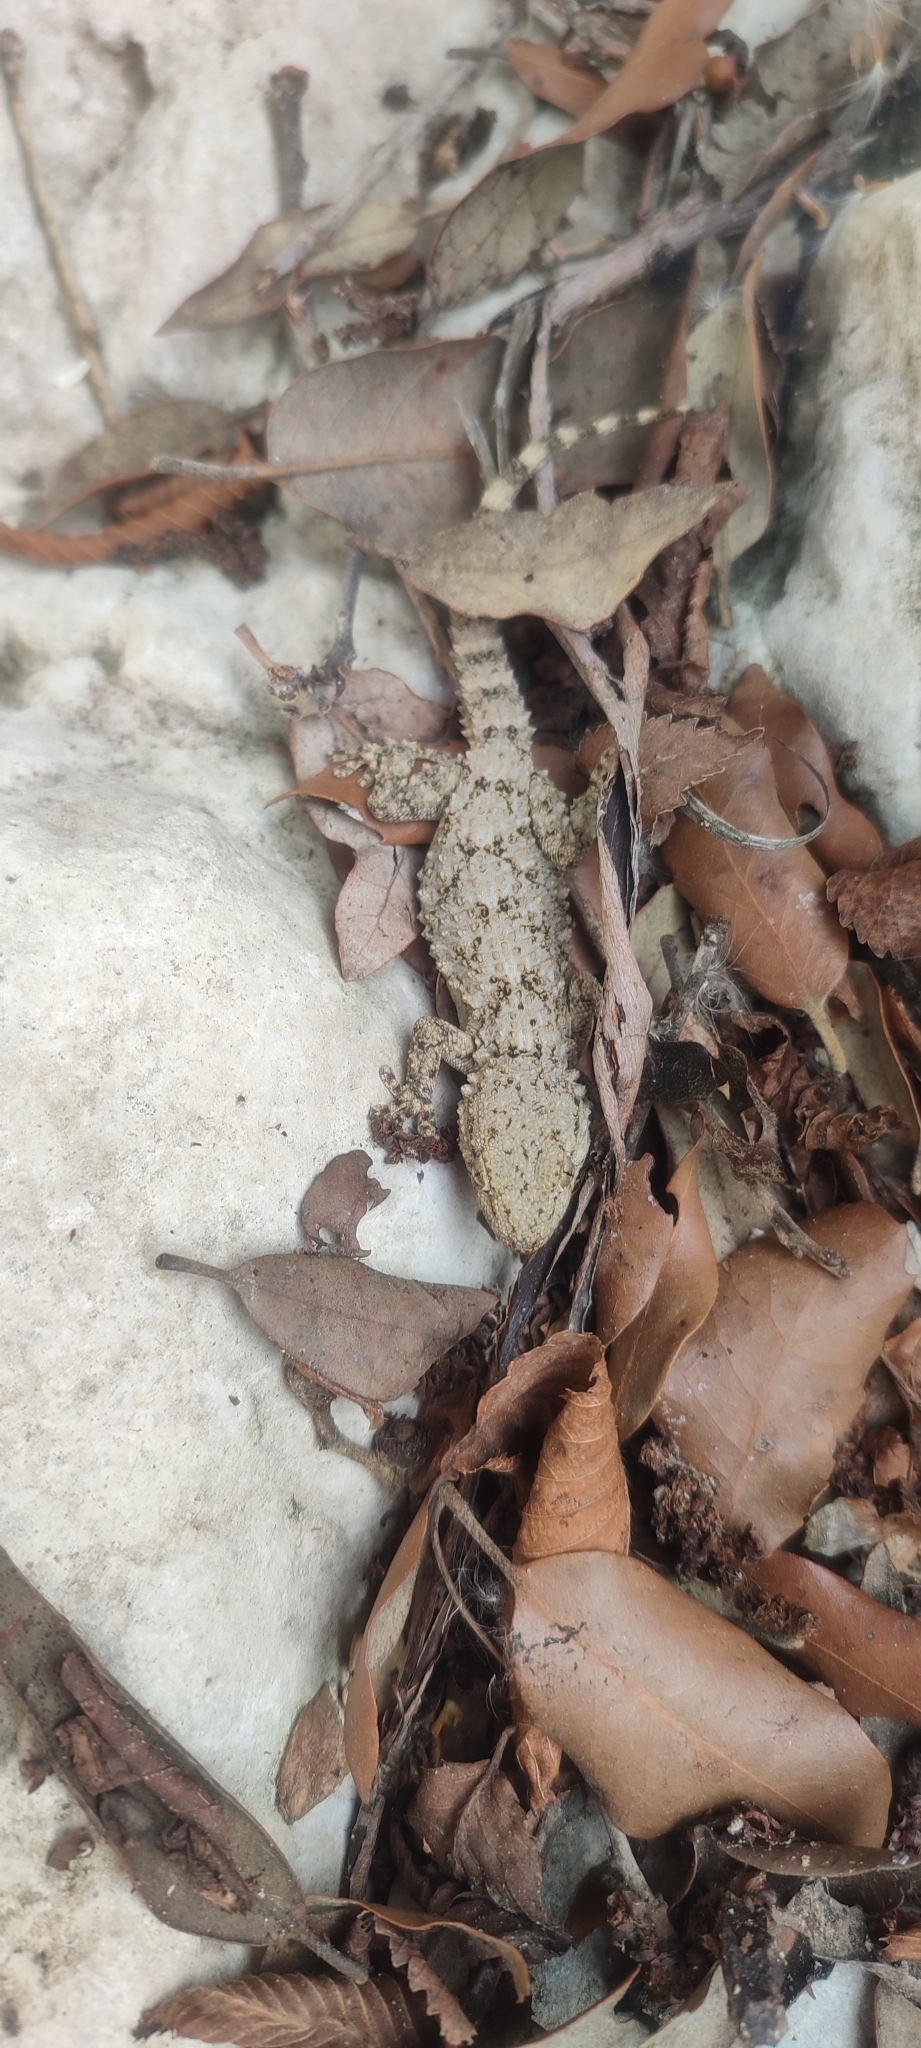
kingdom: Animalia
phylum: Chordata
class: Squamata
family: Phyllodactylidae
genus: Tarentola
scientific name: Tarentola mauritanica
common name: Moorish gecko
